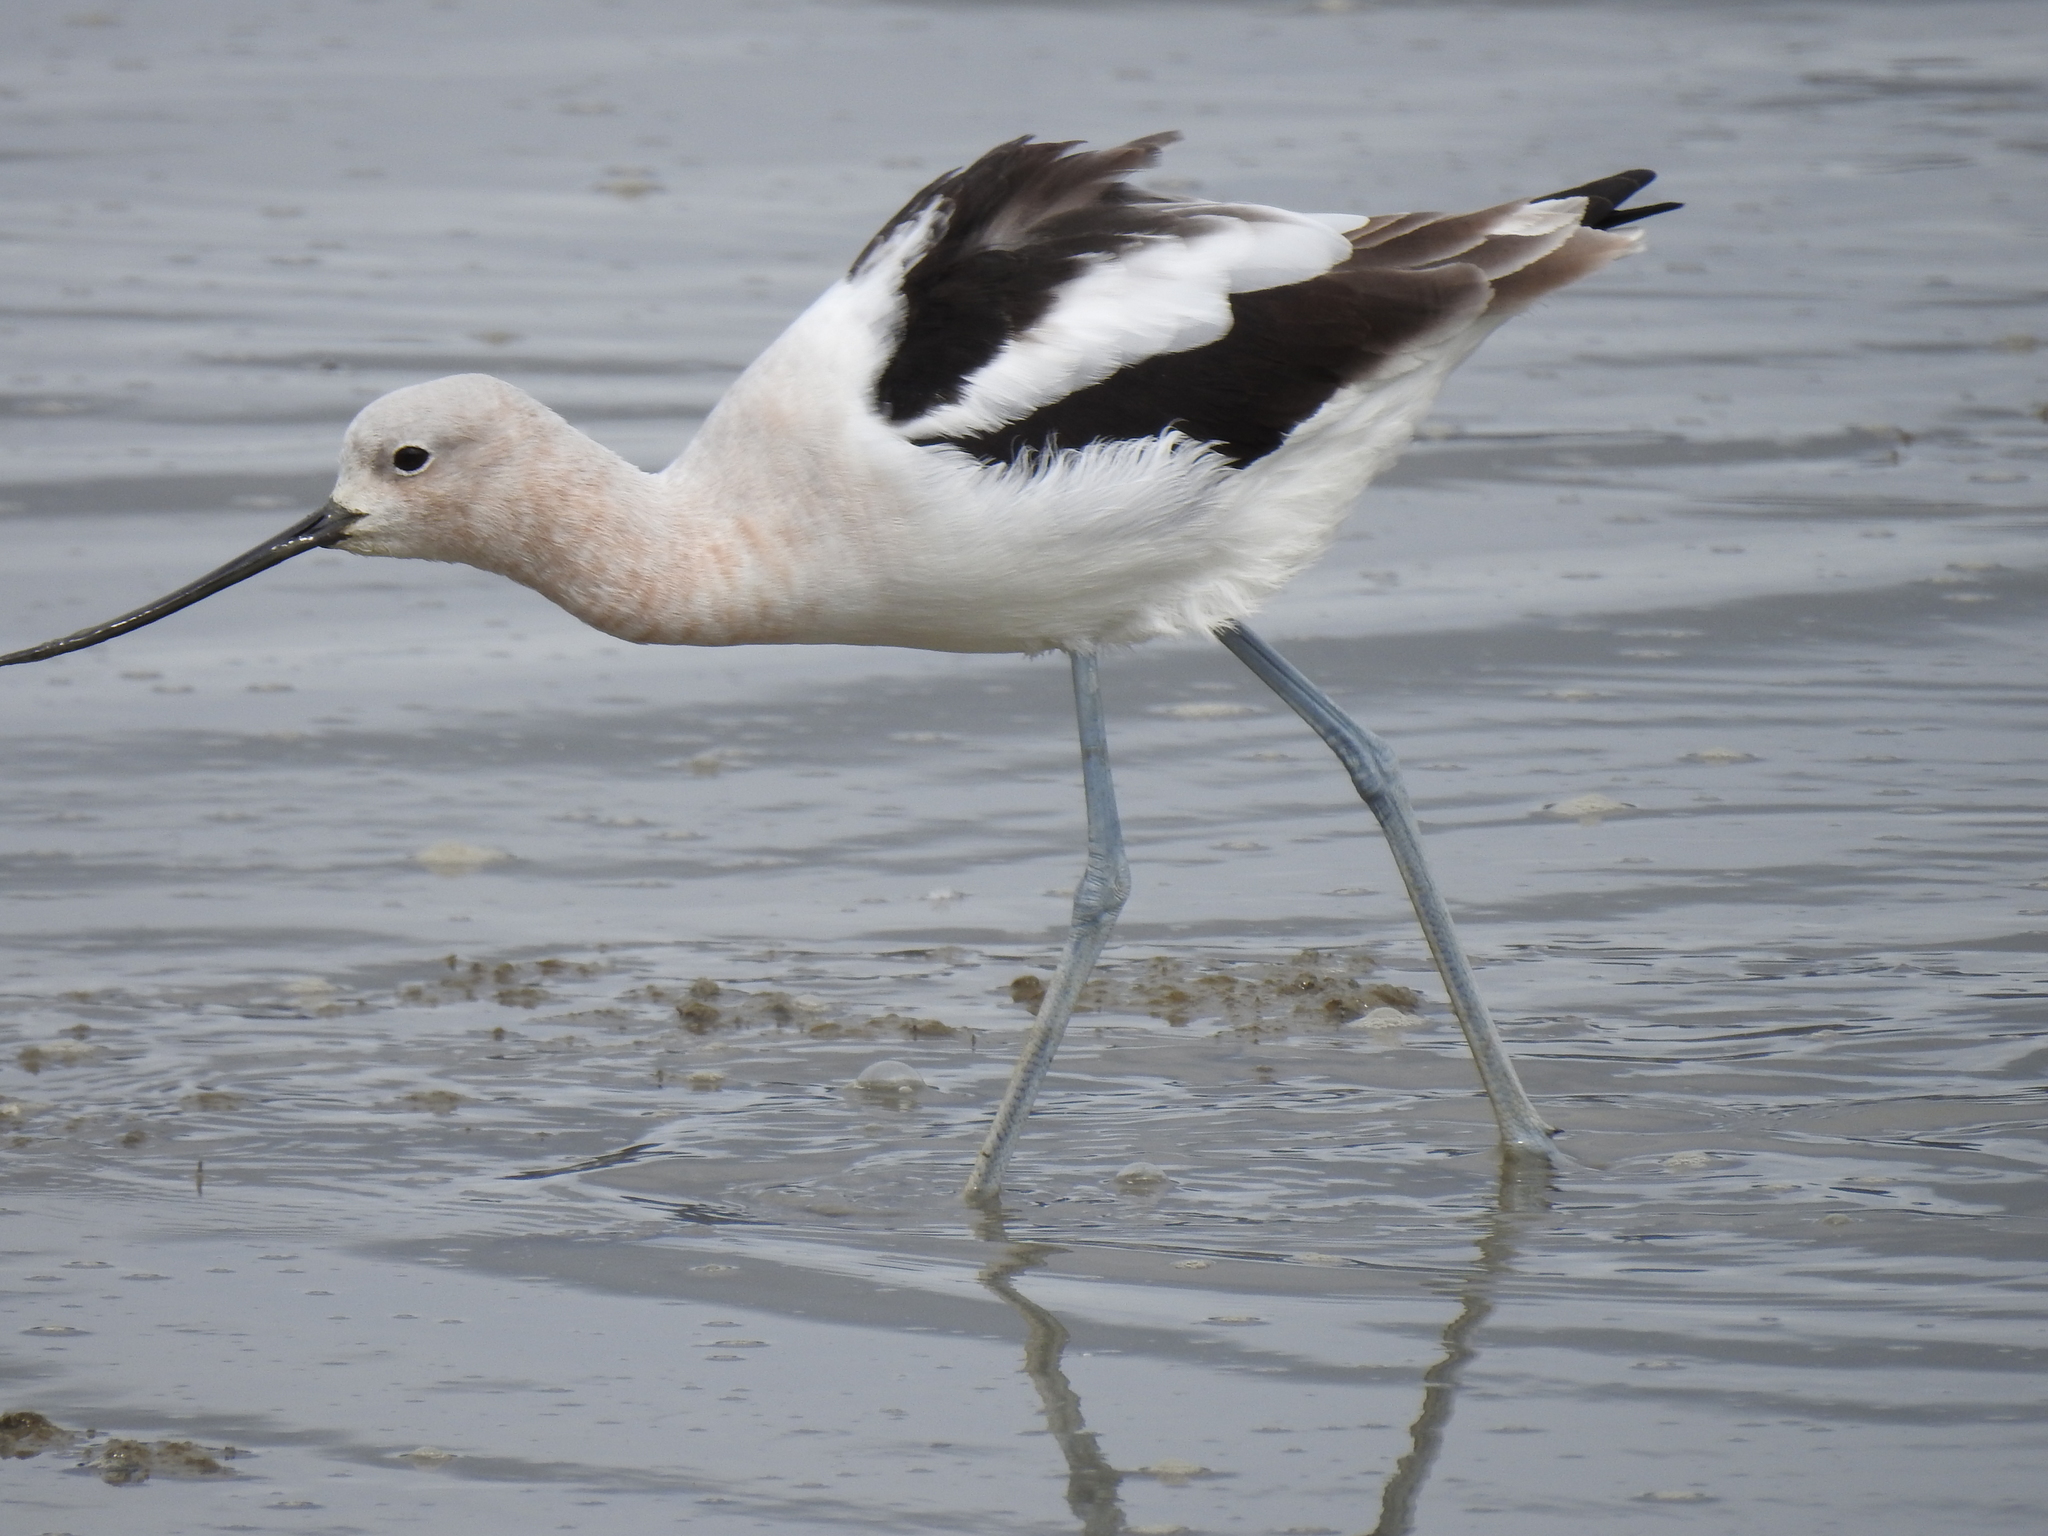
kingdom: Animalia
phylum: Chordata
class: Aves
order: Charadriiformes
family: Recurvirostridae
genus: Recurvirostra
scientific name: Recurvirostra americana
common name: American avocet
